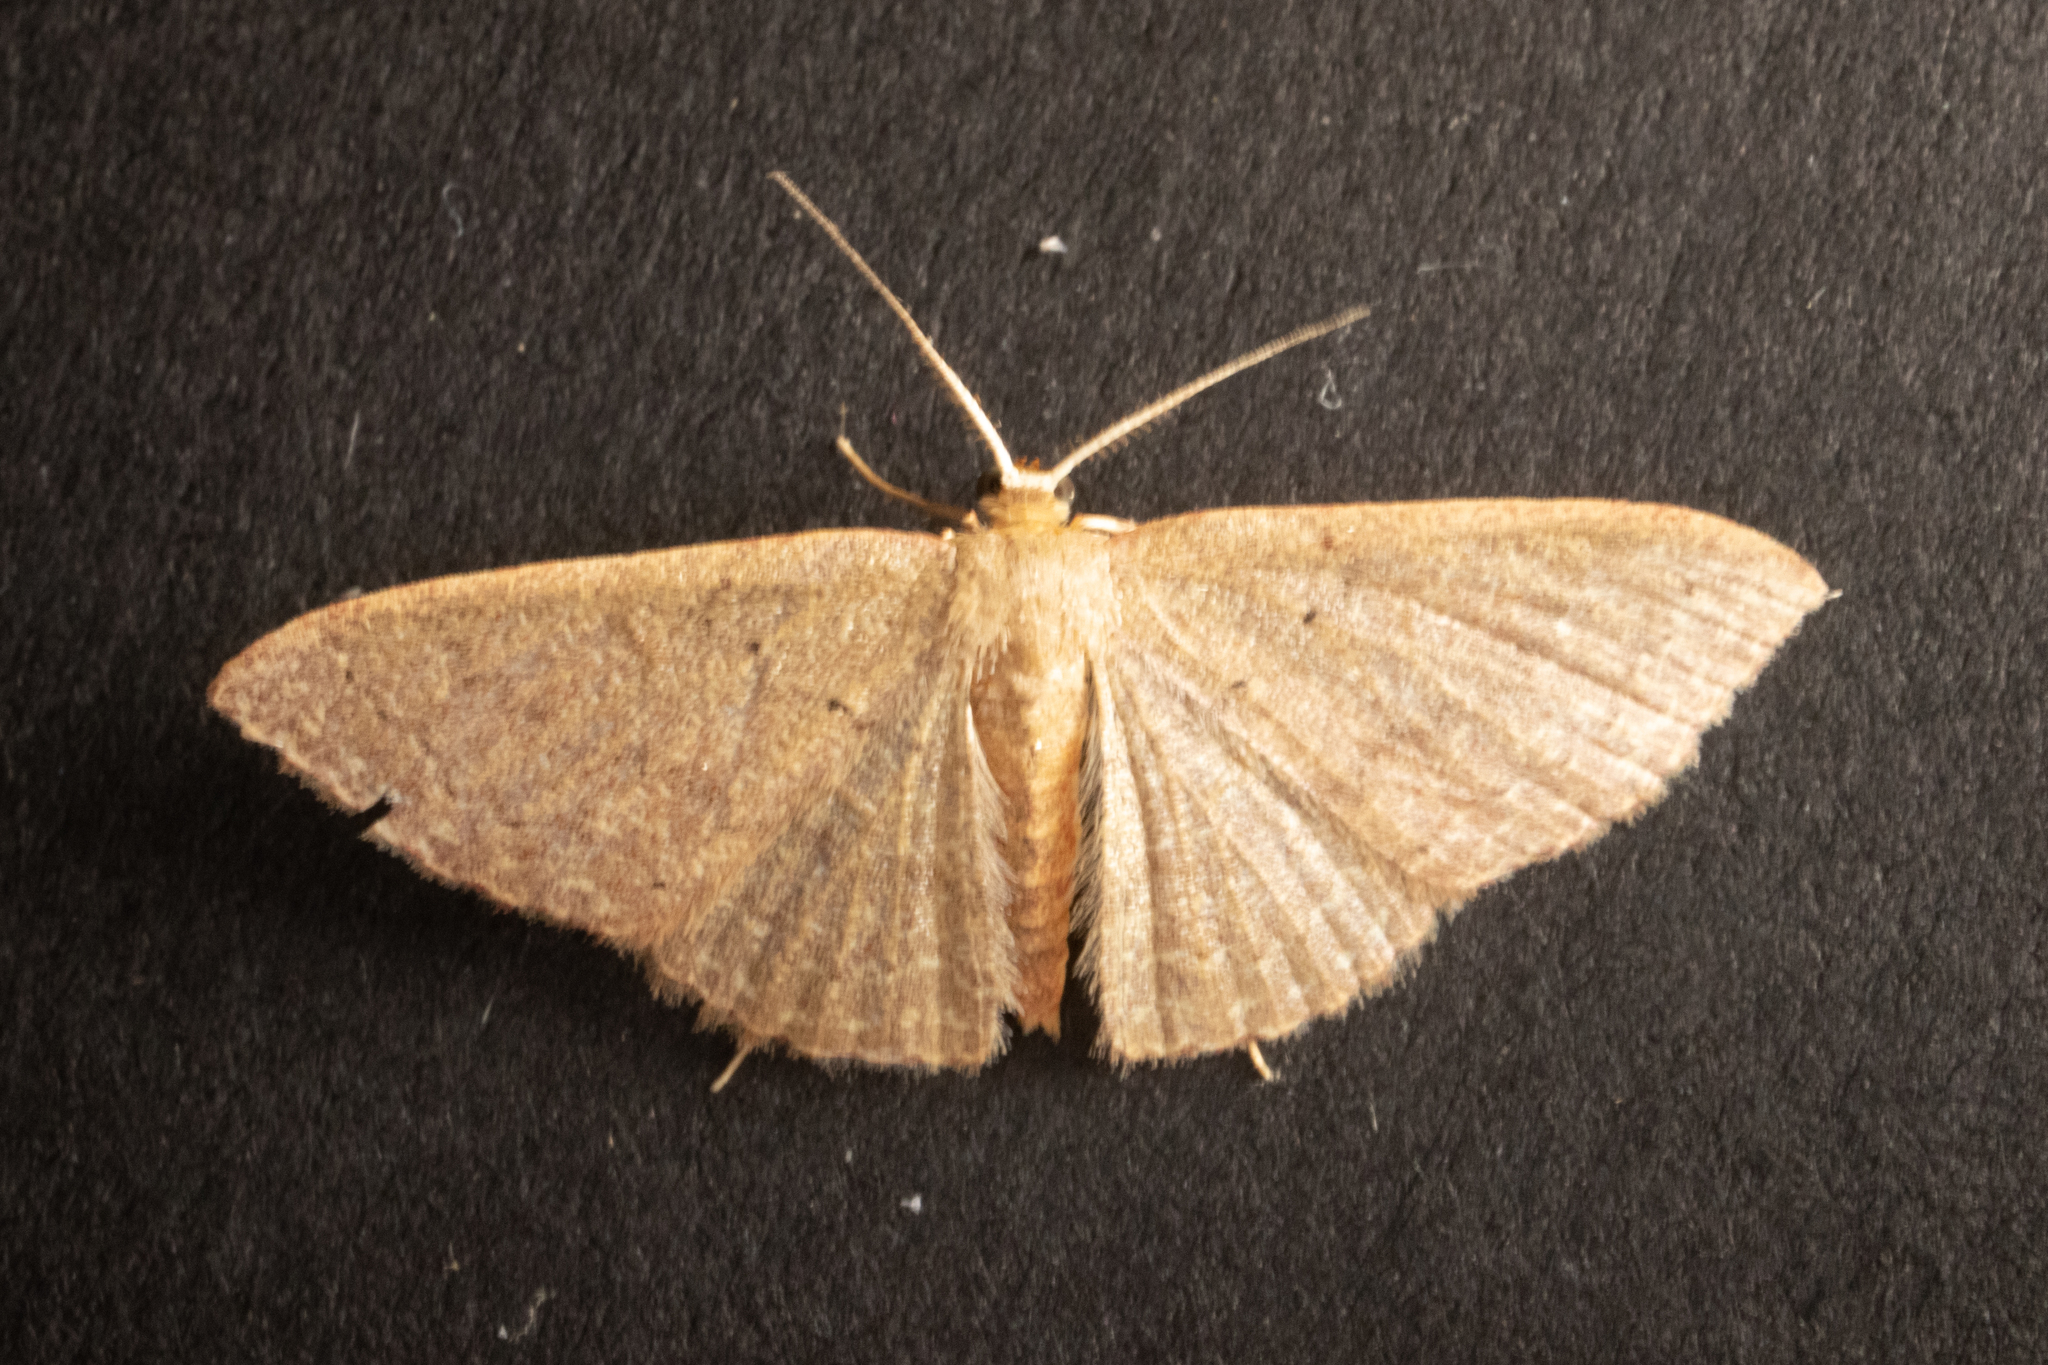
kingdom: Animalia
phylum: Arthropoda
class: Insecta
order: Lepidoptera
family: Geometridae
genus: Pleuroprucha
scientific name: Pleuroprucha insulsaria
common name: Common tan wave
